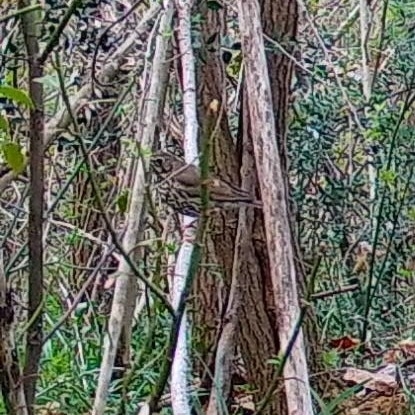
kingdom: Animalia
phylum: Chordata
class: Aves
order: Passeriformes
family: Turdidae
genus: Turdus
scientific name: Turdus philomelos
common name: Song thrush
